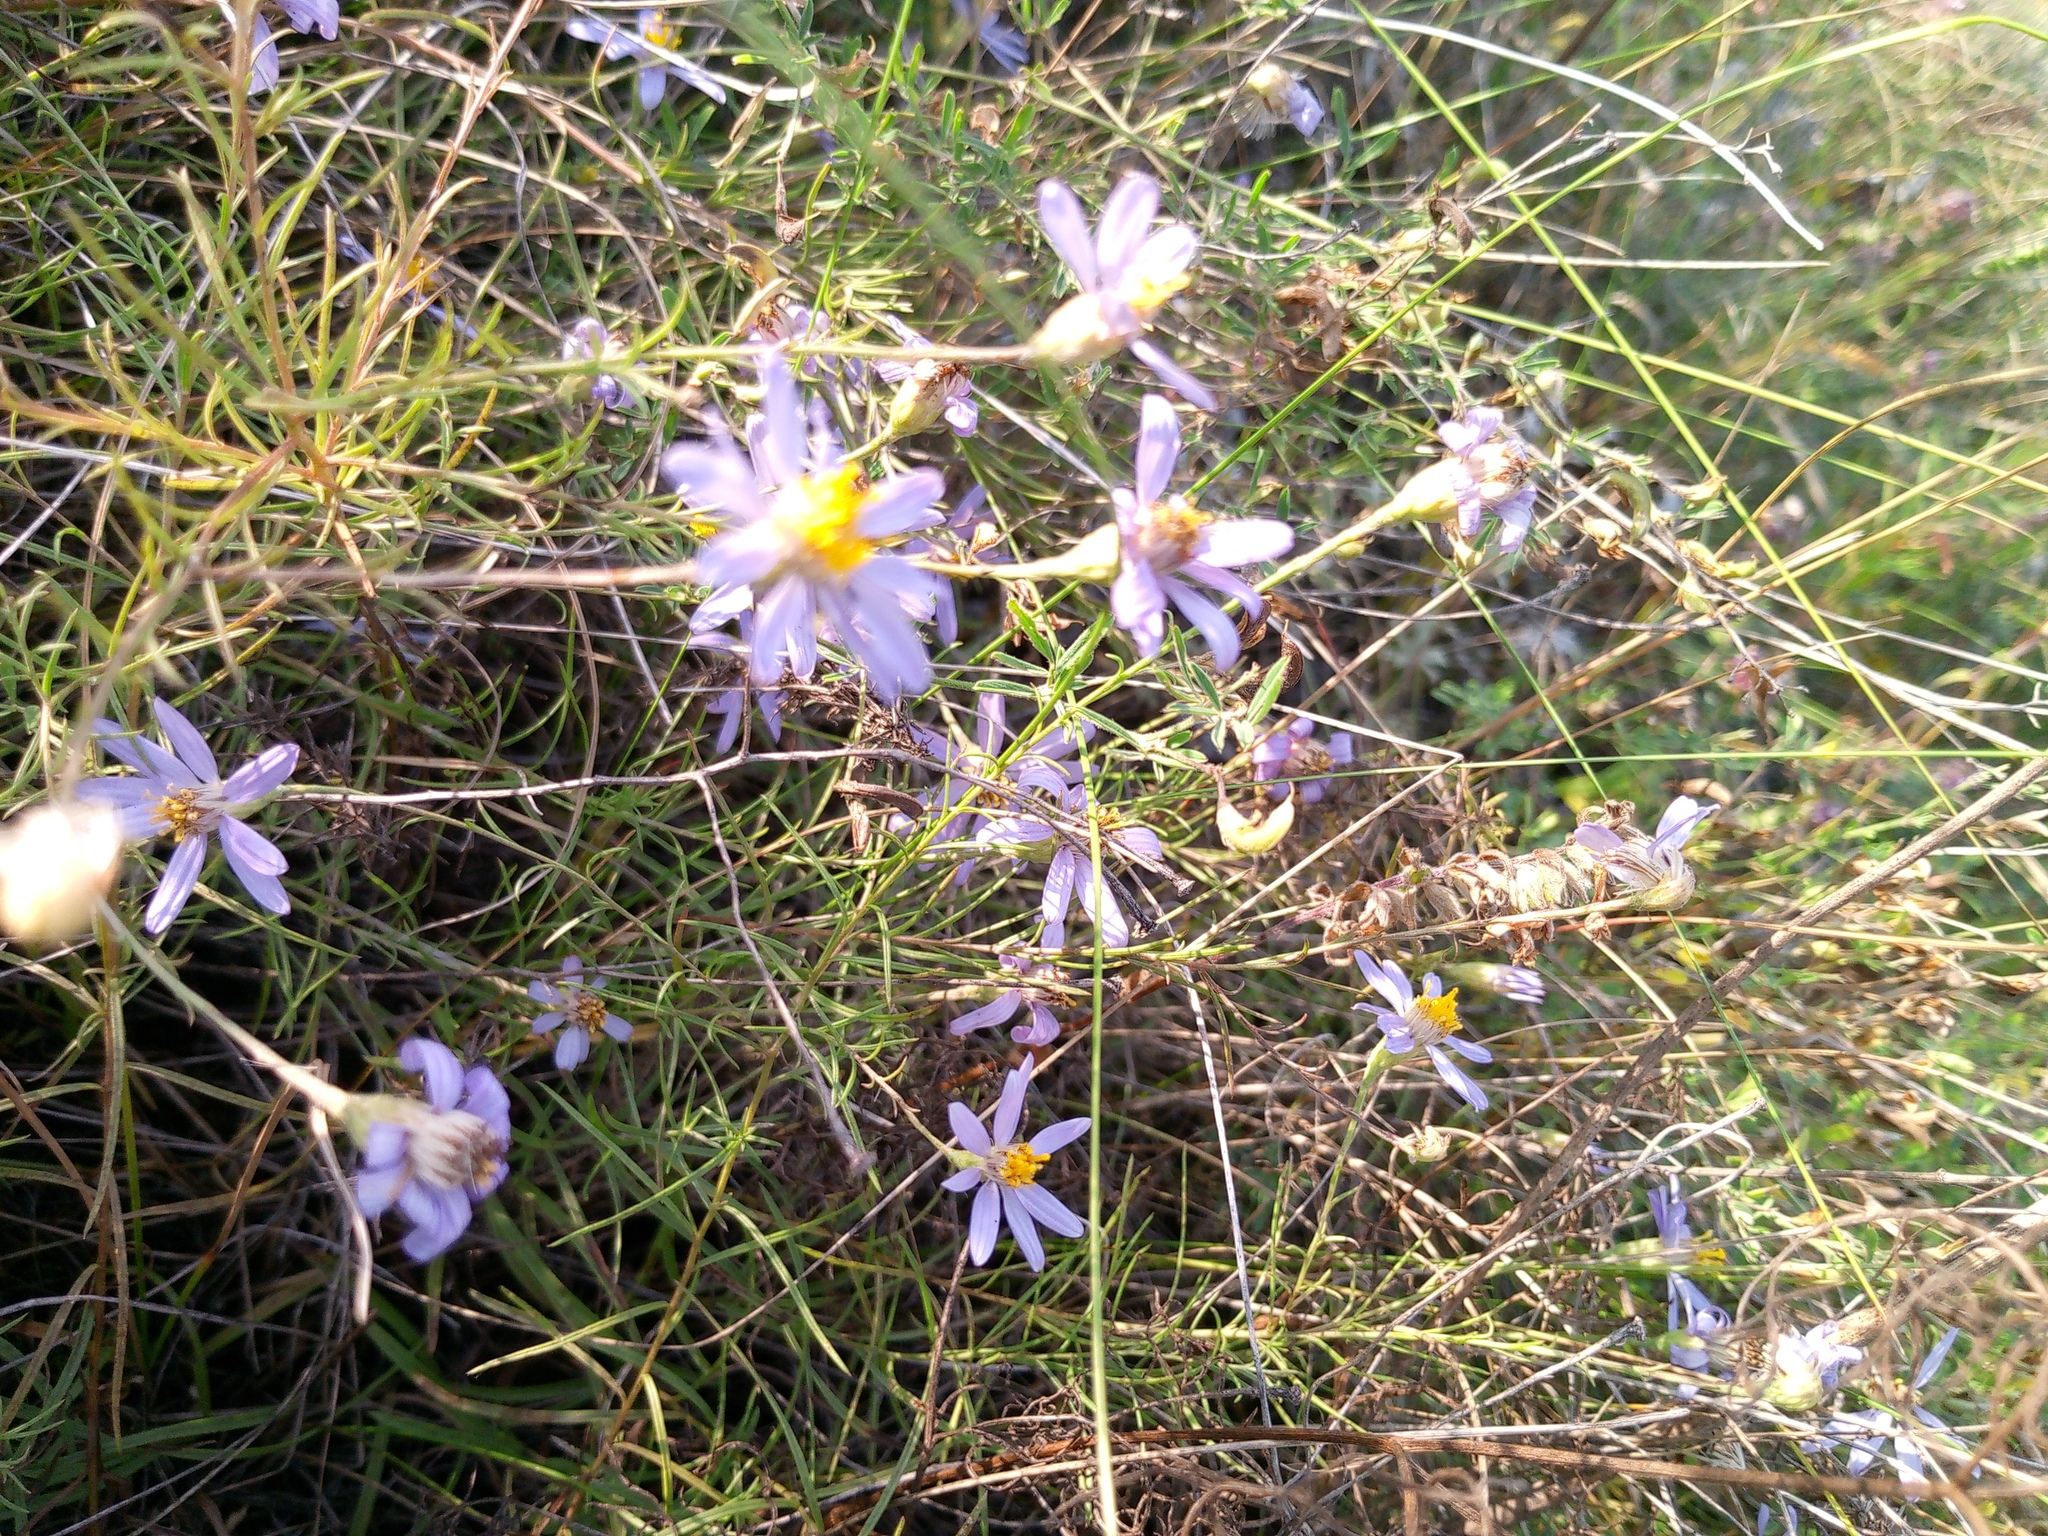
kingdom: Plantae
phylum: Tracheophyta
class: Magnoliopsida
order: Asterales
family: Asteraceae
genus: Galatella
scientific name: Galatella angustissima
